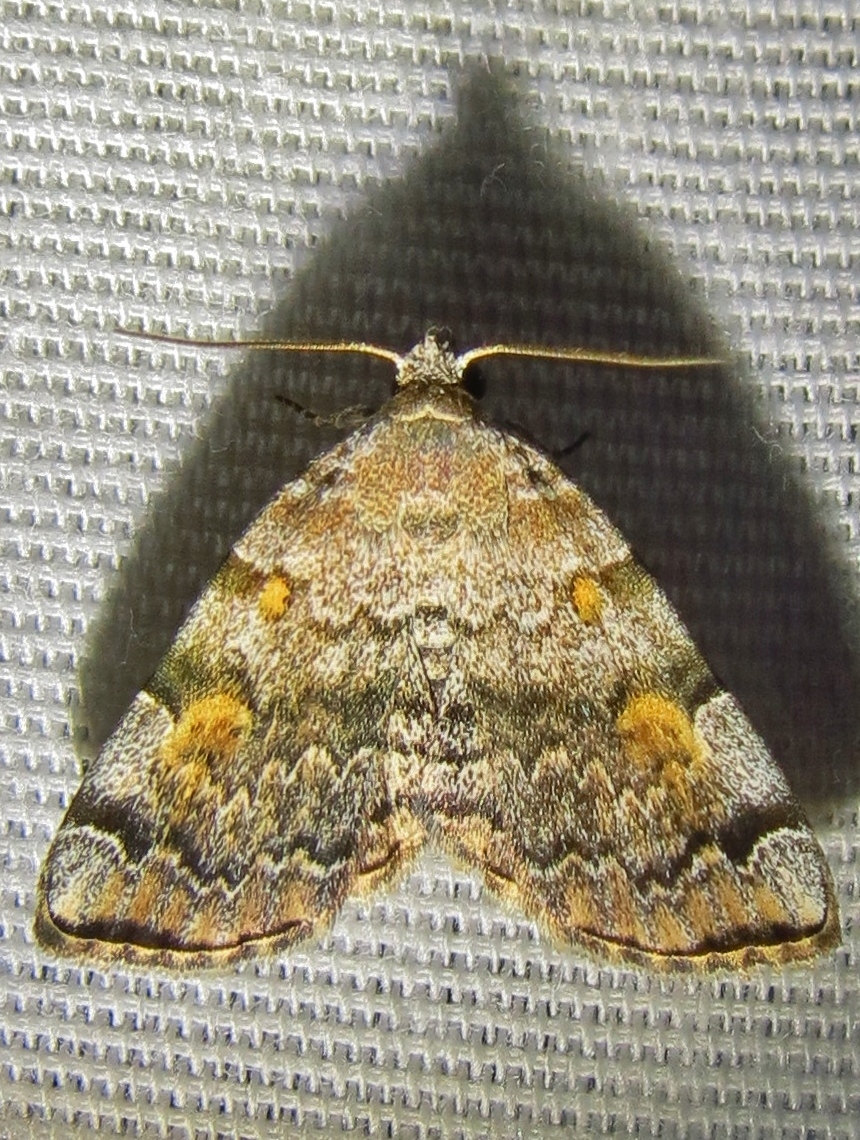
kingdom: Animalia
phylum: Arthropoda
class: Insecta
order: Lepidoptera
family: Erebidae
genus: Idia
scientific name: Idia americalis
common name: American idia moth
